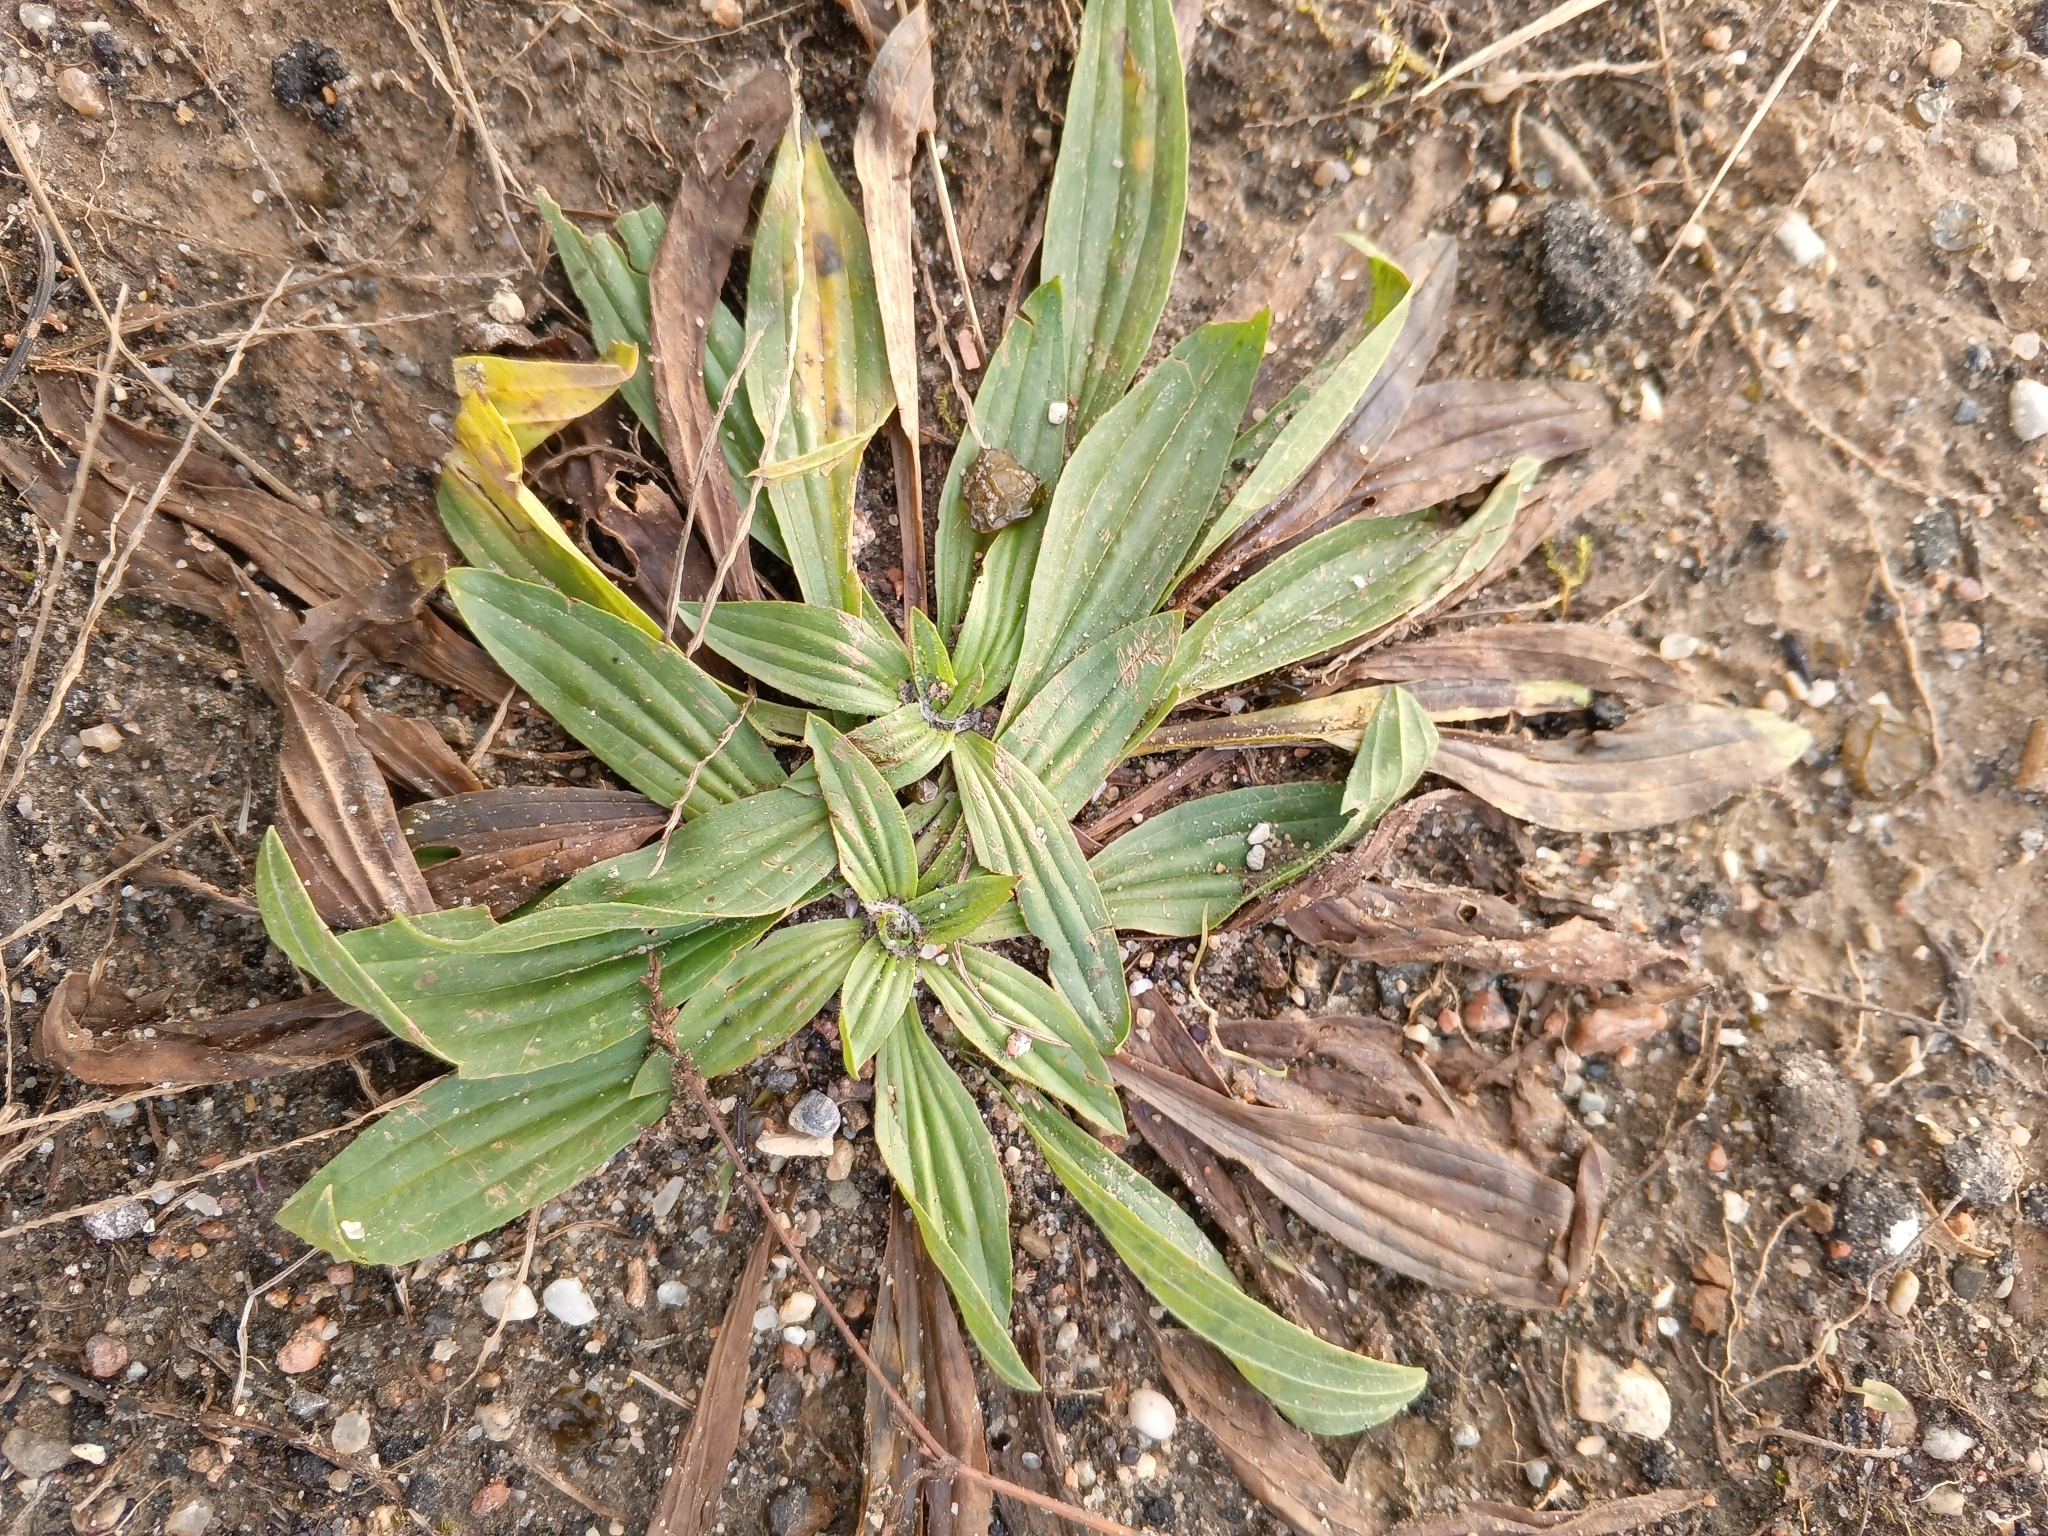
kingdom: Plantae
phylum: Tracheophyta
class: Magnoliopsida
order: Lamiales
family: Plantaginaceae
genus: Plantago
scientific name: Plantago lanceolata
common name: Ribwort plantain
